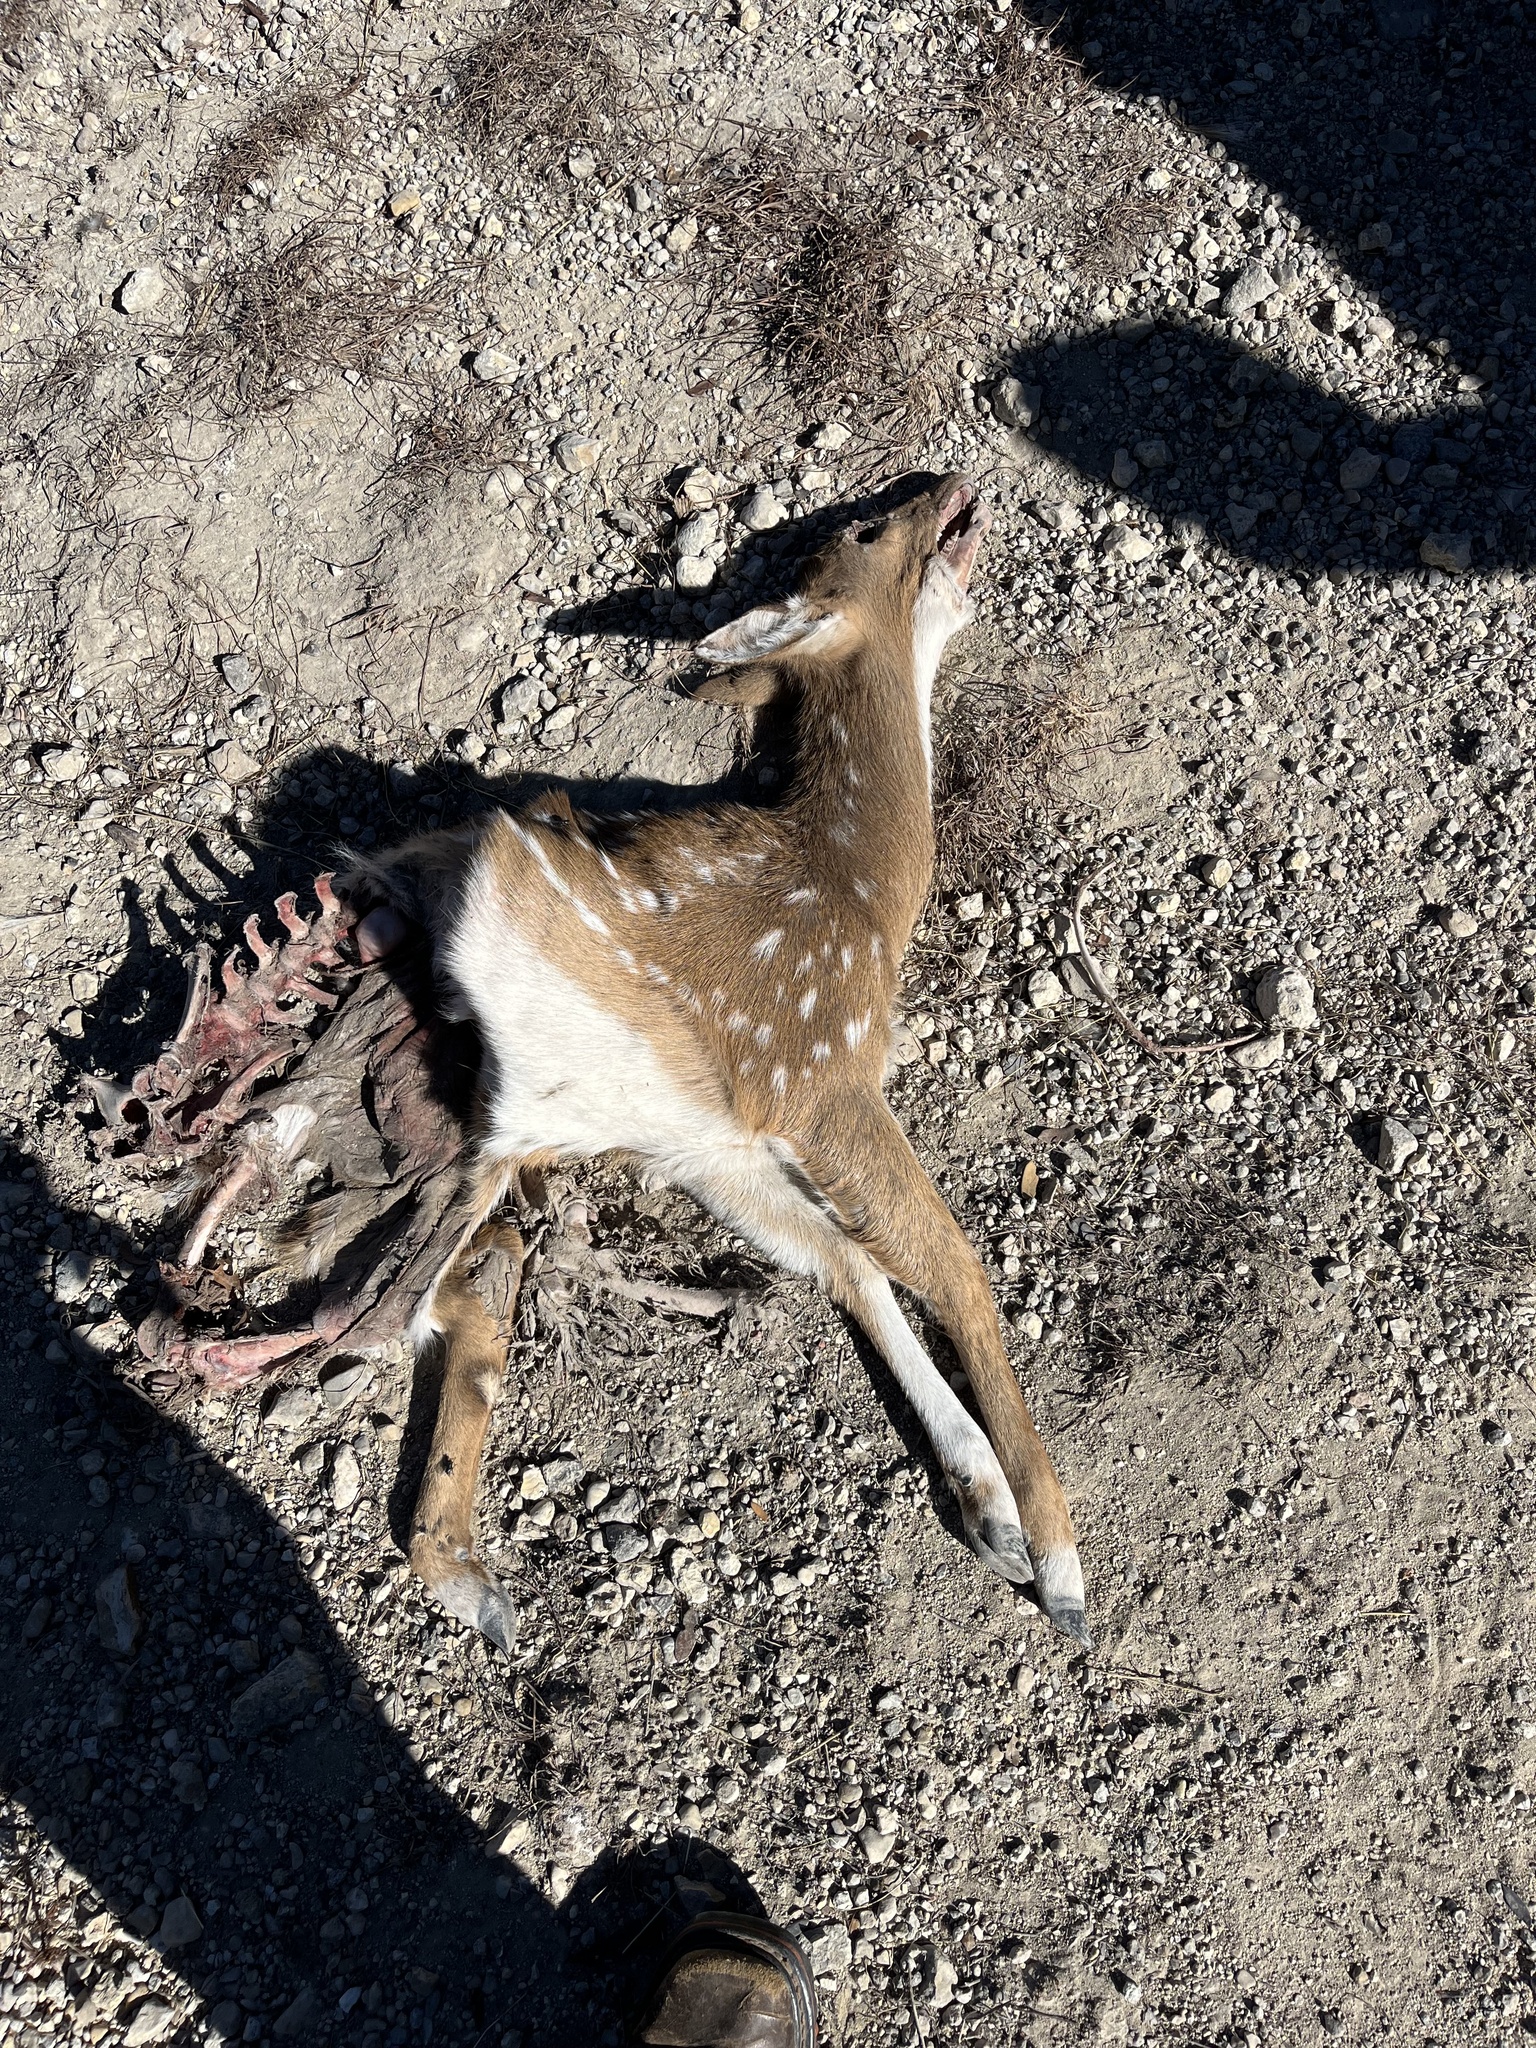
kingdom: Animalia
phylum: Chordata
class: Mammalia
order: Artiodactyla
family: Cervidae
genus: Axis
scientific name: Axis axis
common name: Chital
